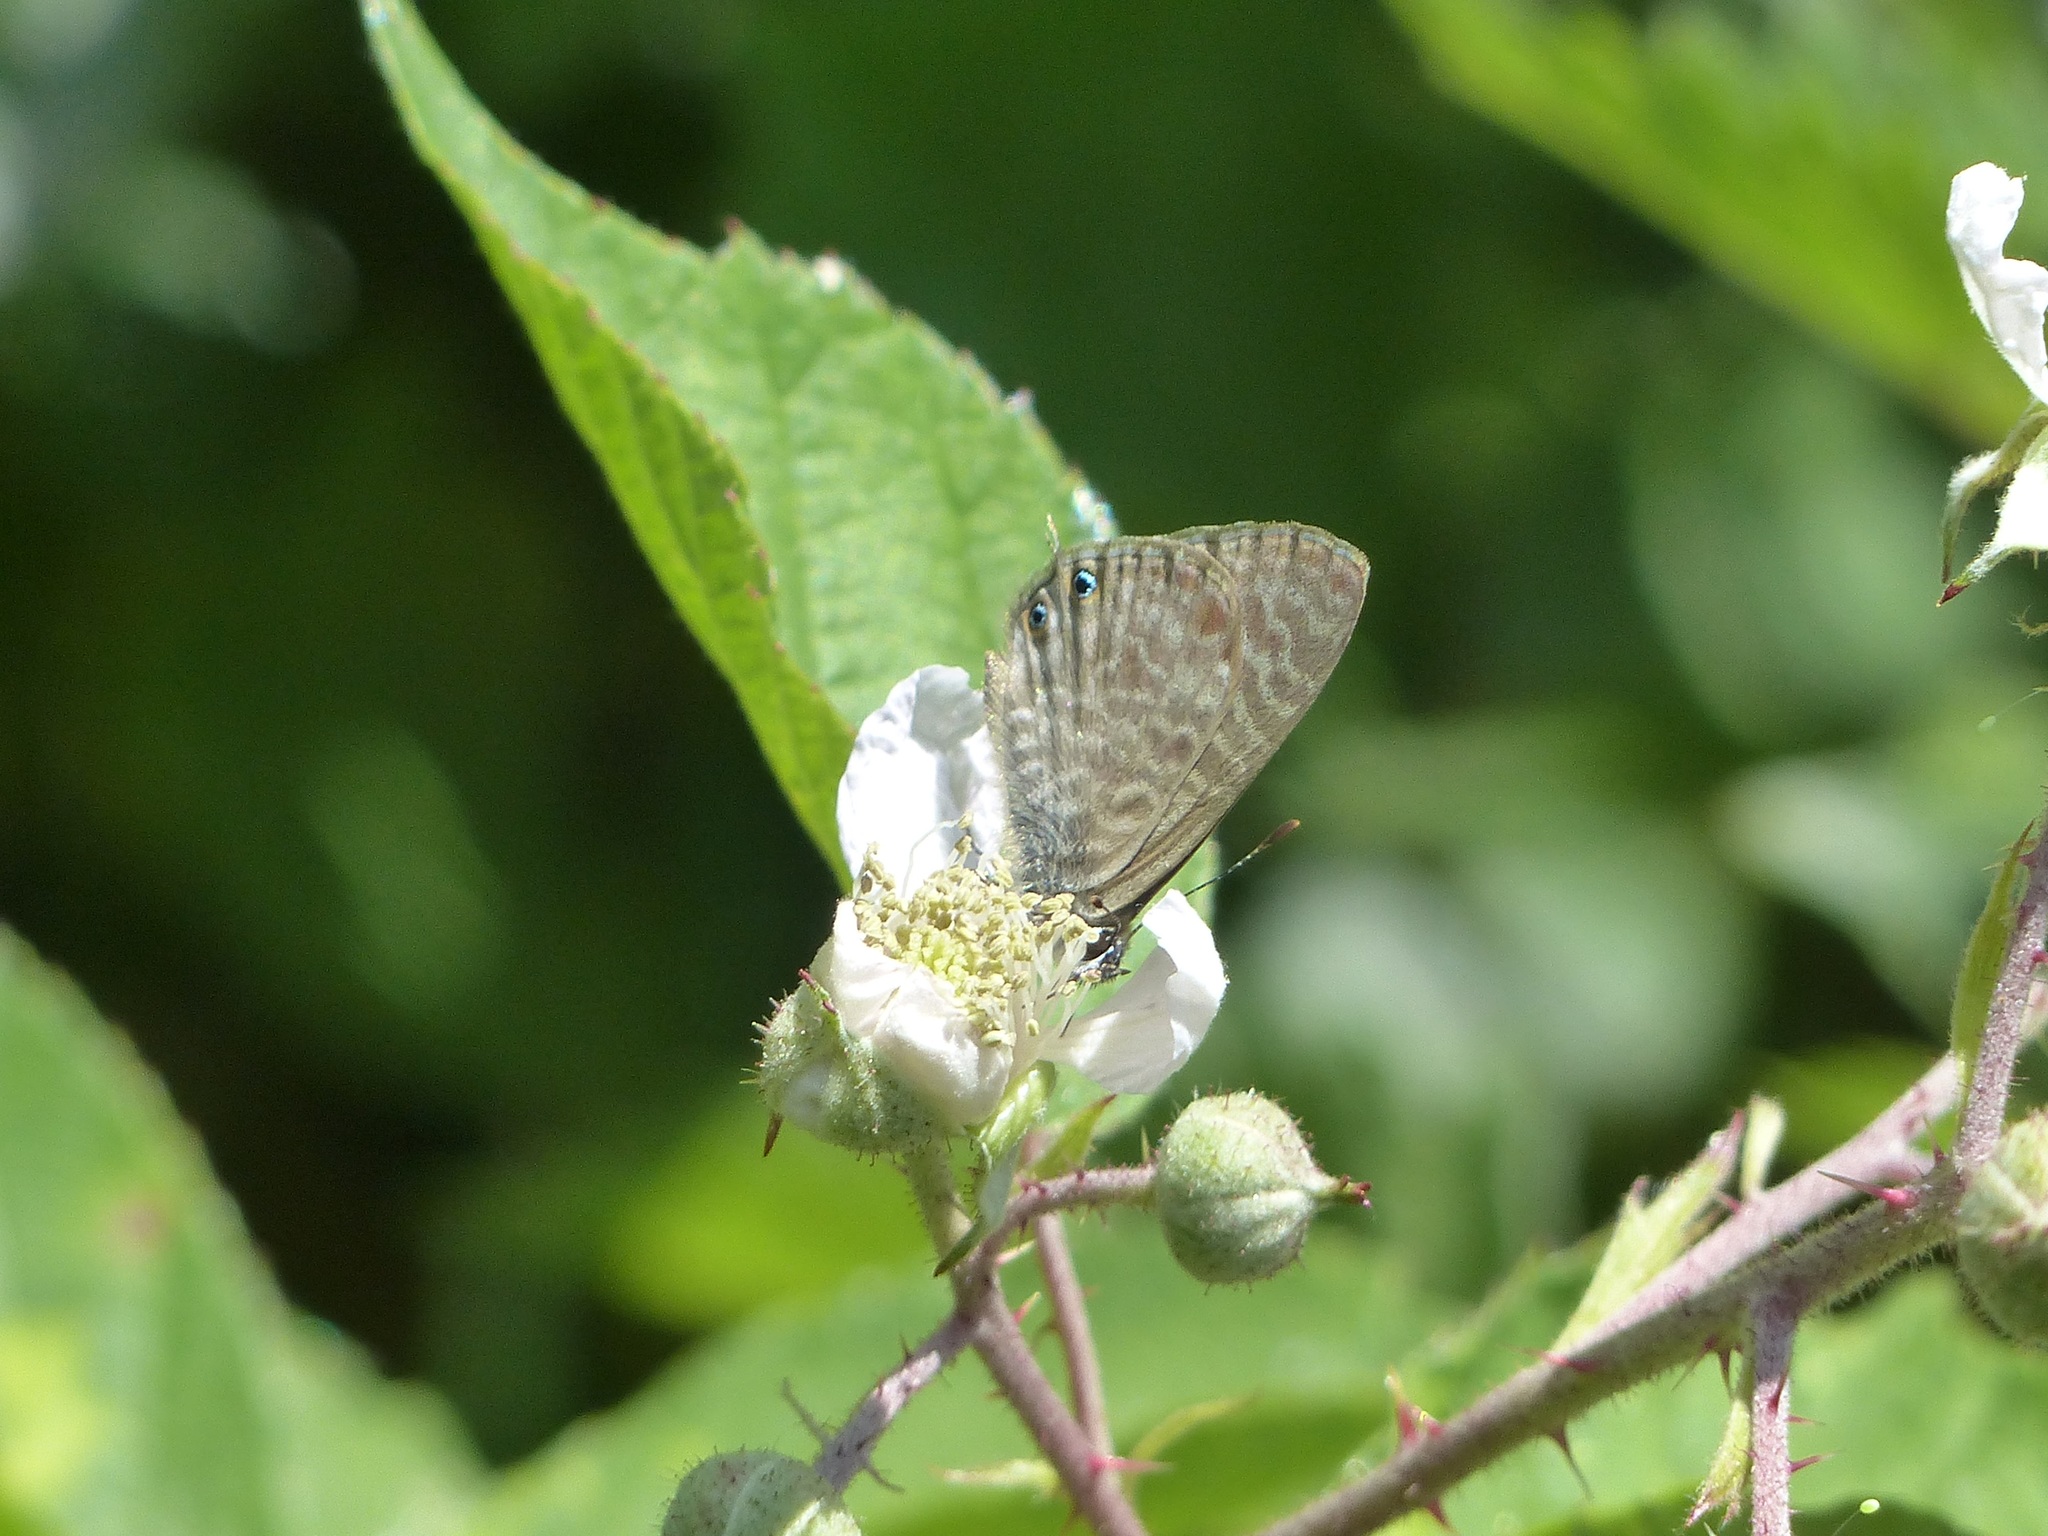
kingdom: Animalia
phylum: Arthropoda
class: Insecta
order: Lepidoptera
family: Lycaenidae
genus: Leptotes
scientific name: Leptotes pirithous
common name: Lang's short-tailed blue
